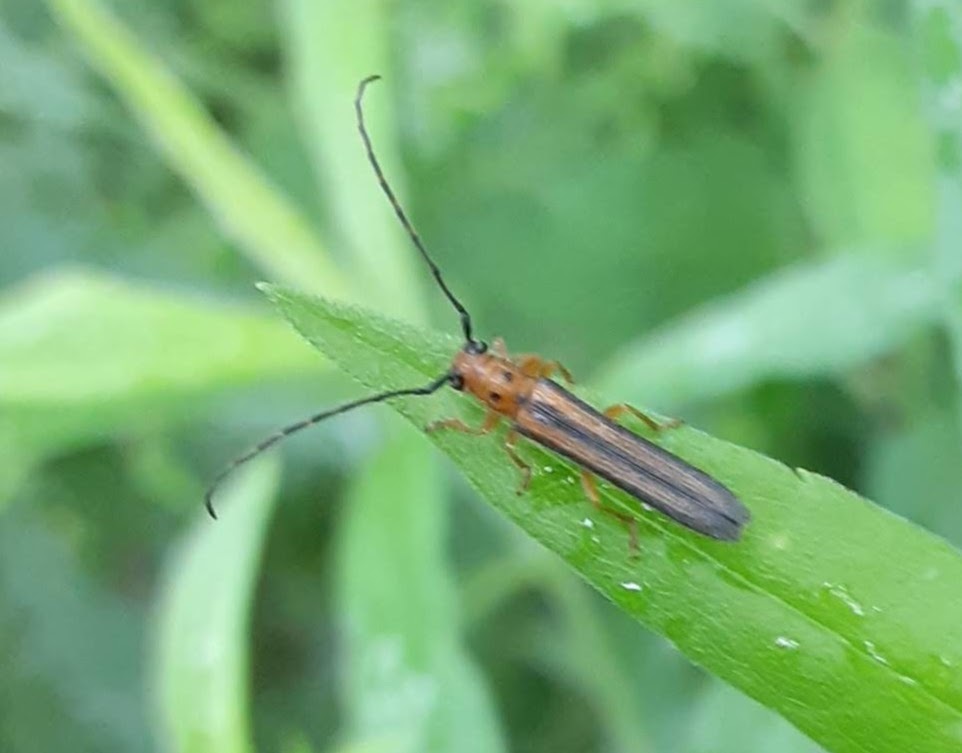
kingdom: Animalia
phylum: Arthropoda
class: Insecta
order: Coleoptera
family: Cerambycidae
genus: Oberea
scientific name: Oberea tripunctata
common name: Dogwood twig borer
